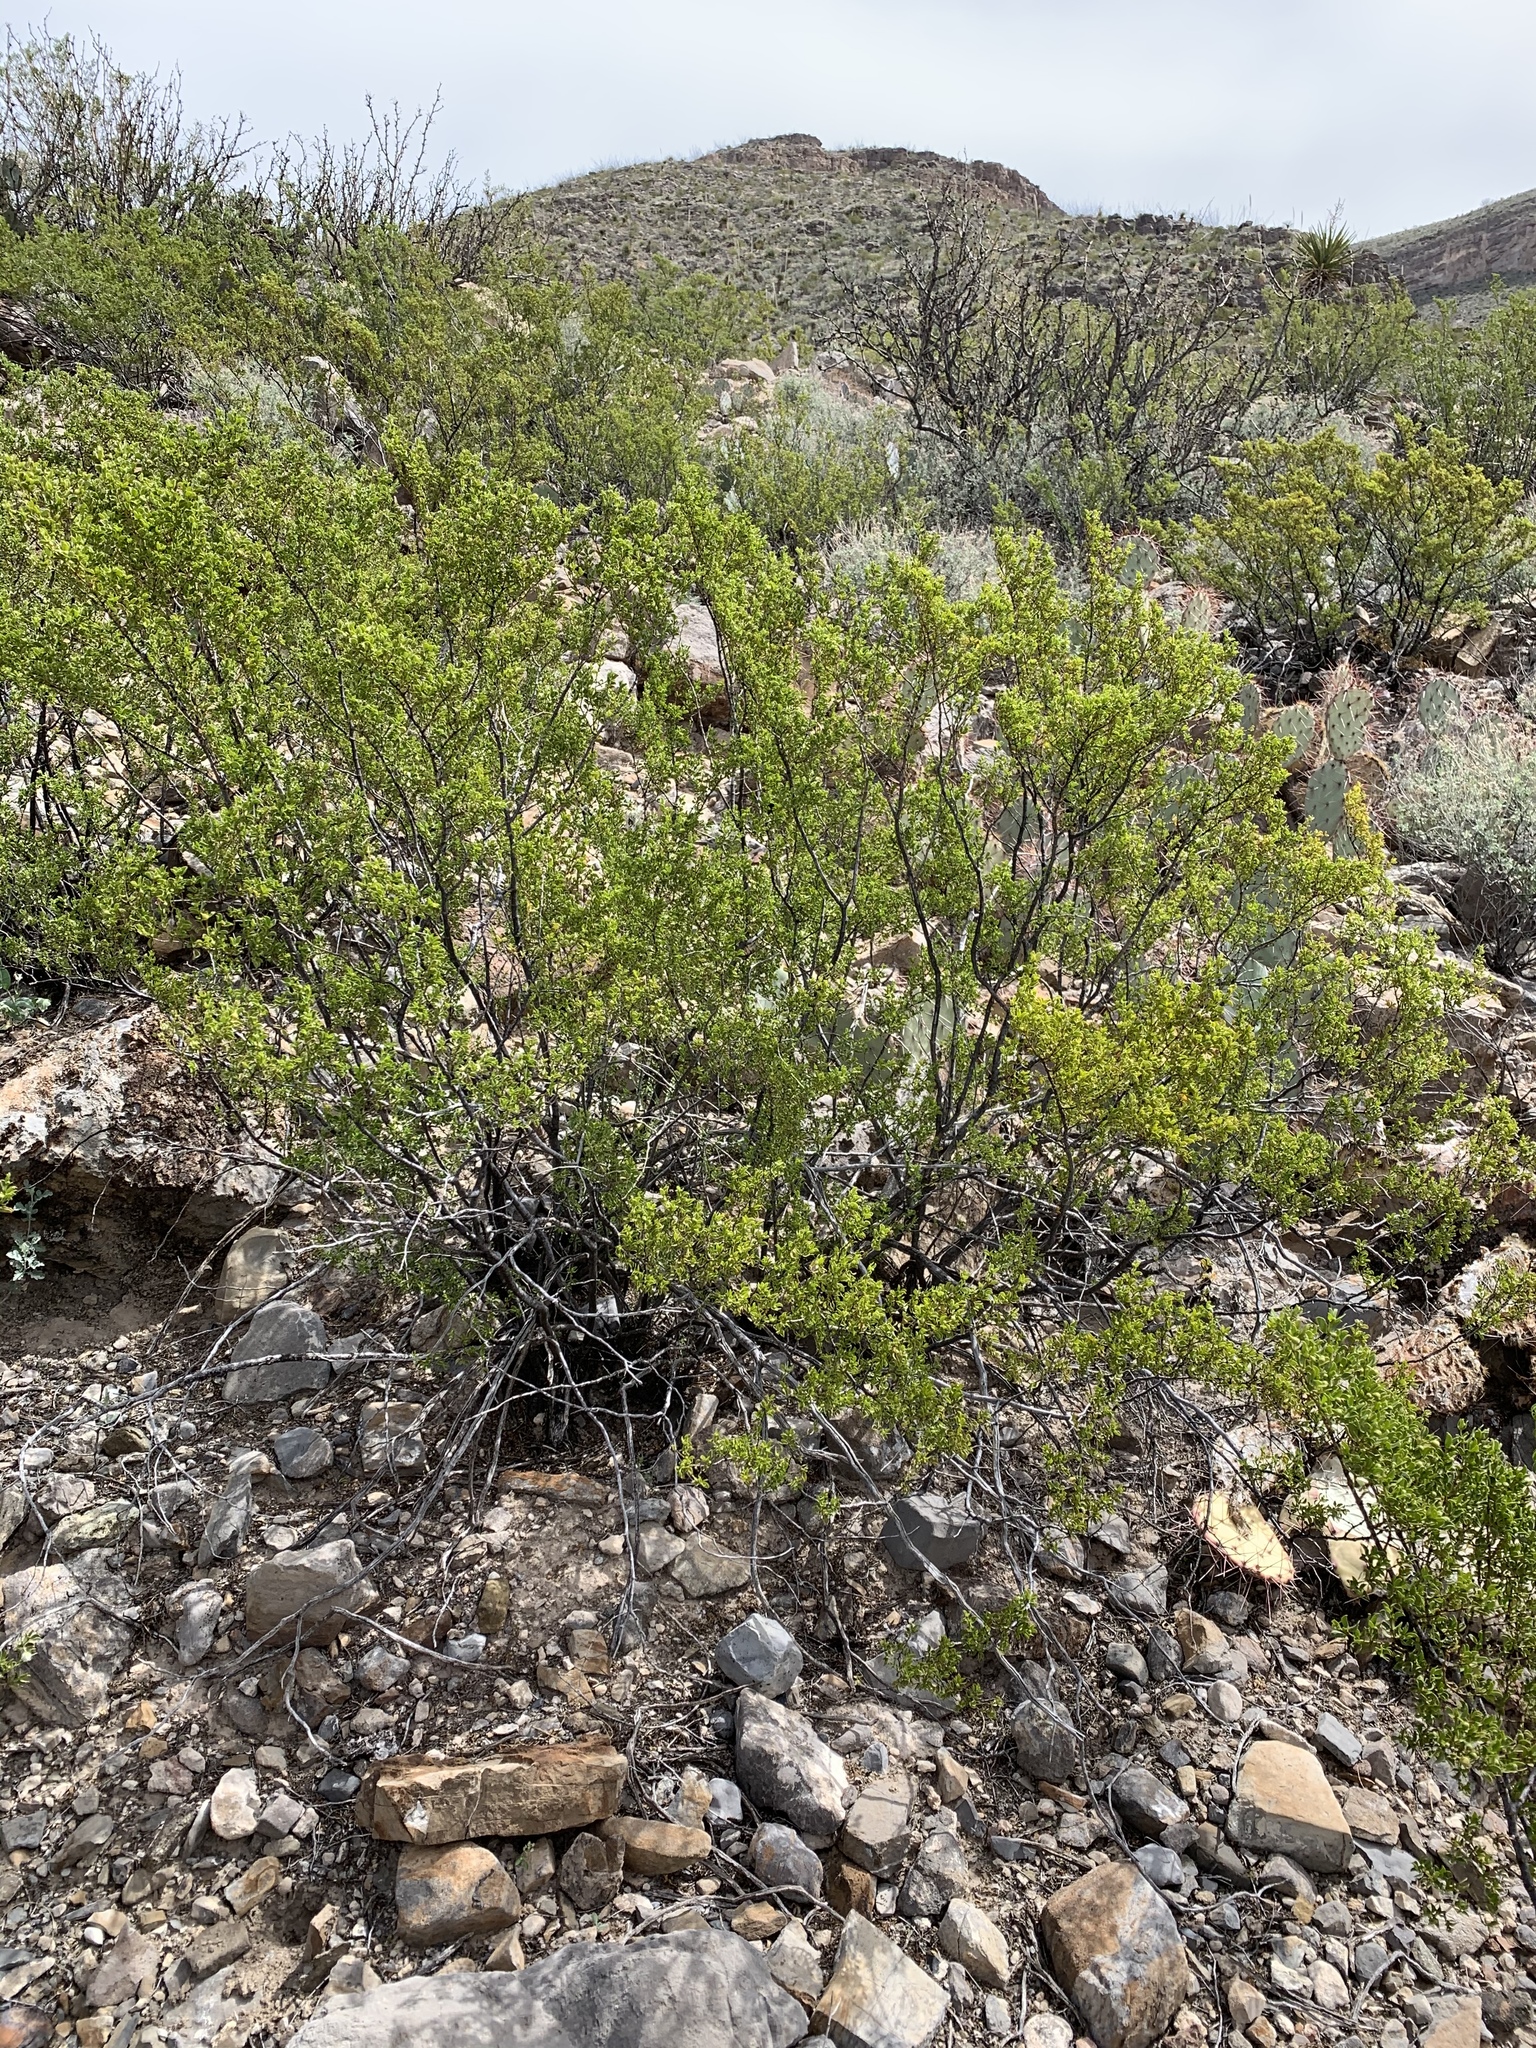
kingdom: Plantae
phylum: Tracheophyta
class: Magnoliopsida
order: Zygophyllales
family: Zygophyllaceae
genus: Larrea
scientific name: Larrea tridentata
